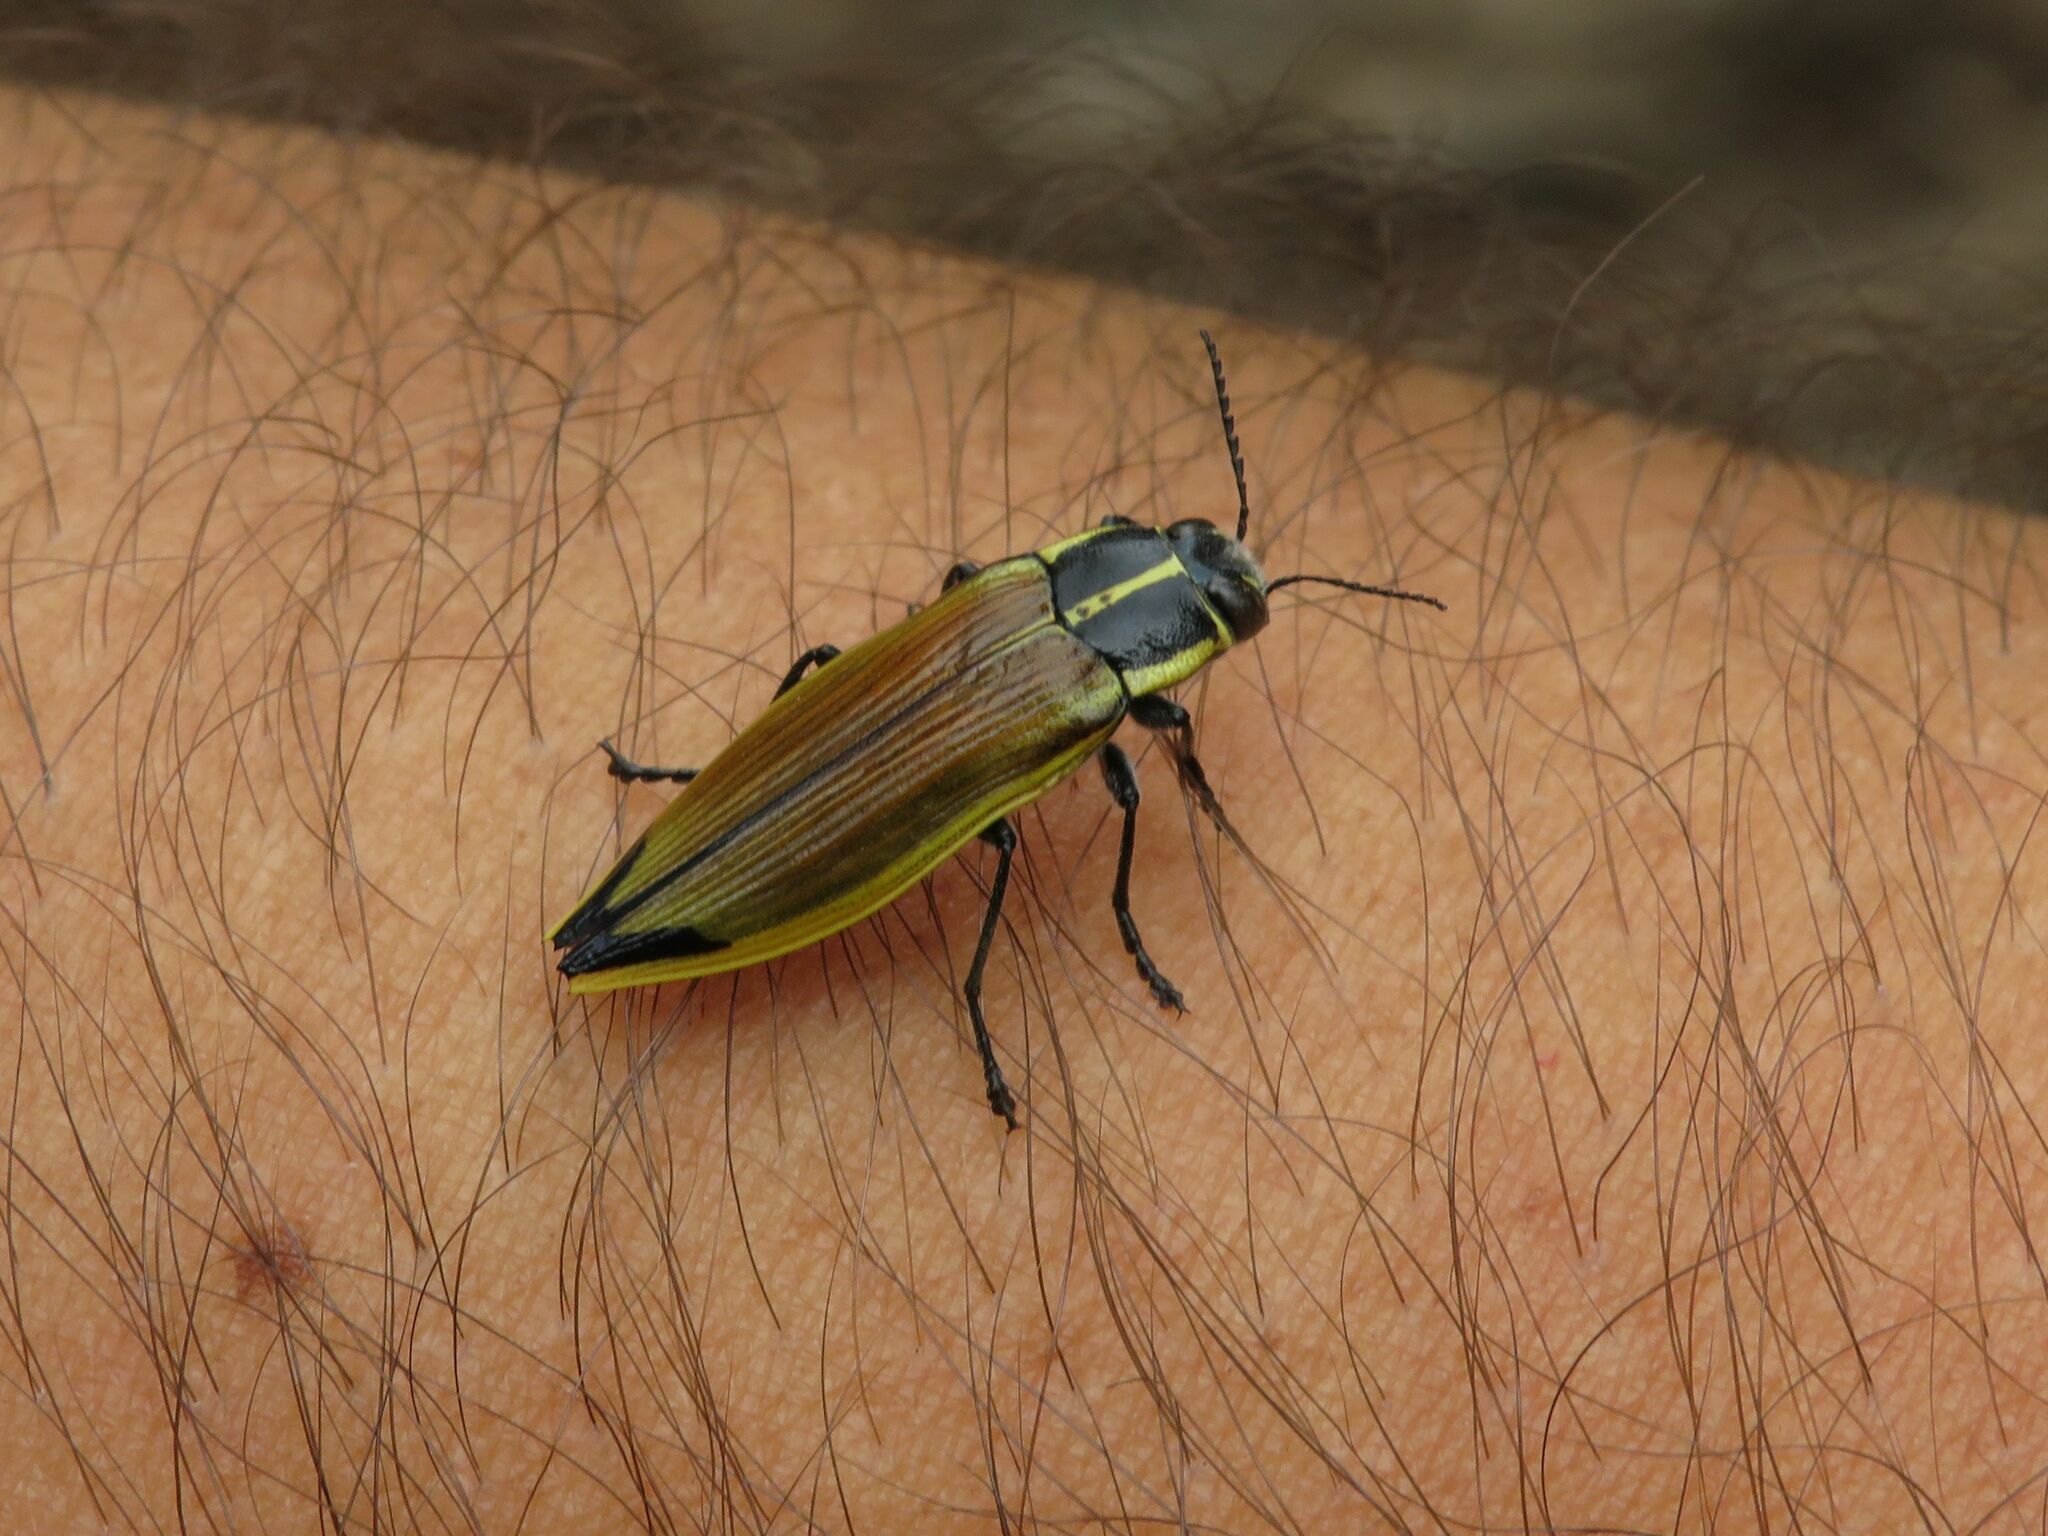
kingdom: Animalia
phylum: Arthropoda
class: Insecta
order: Coleoptera
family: Buprestidae
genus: Epistomentis
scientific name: Epistomentis pictus
